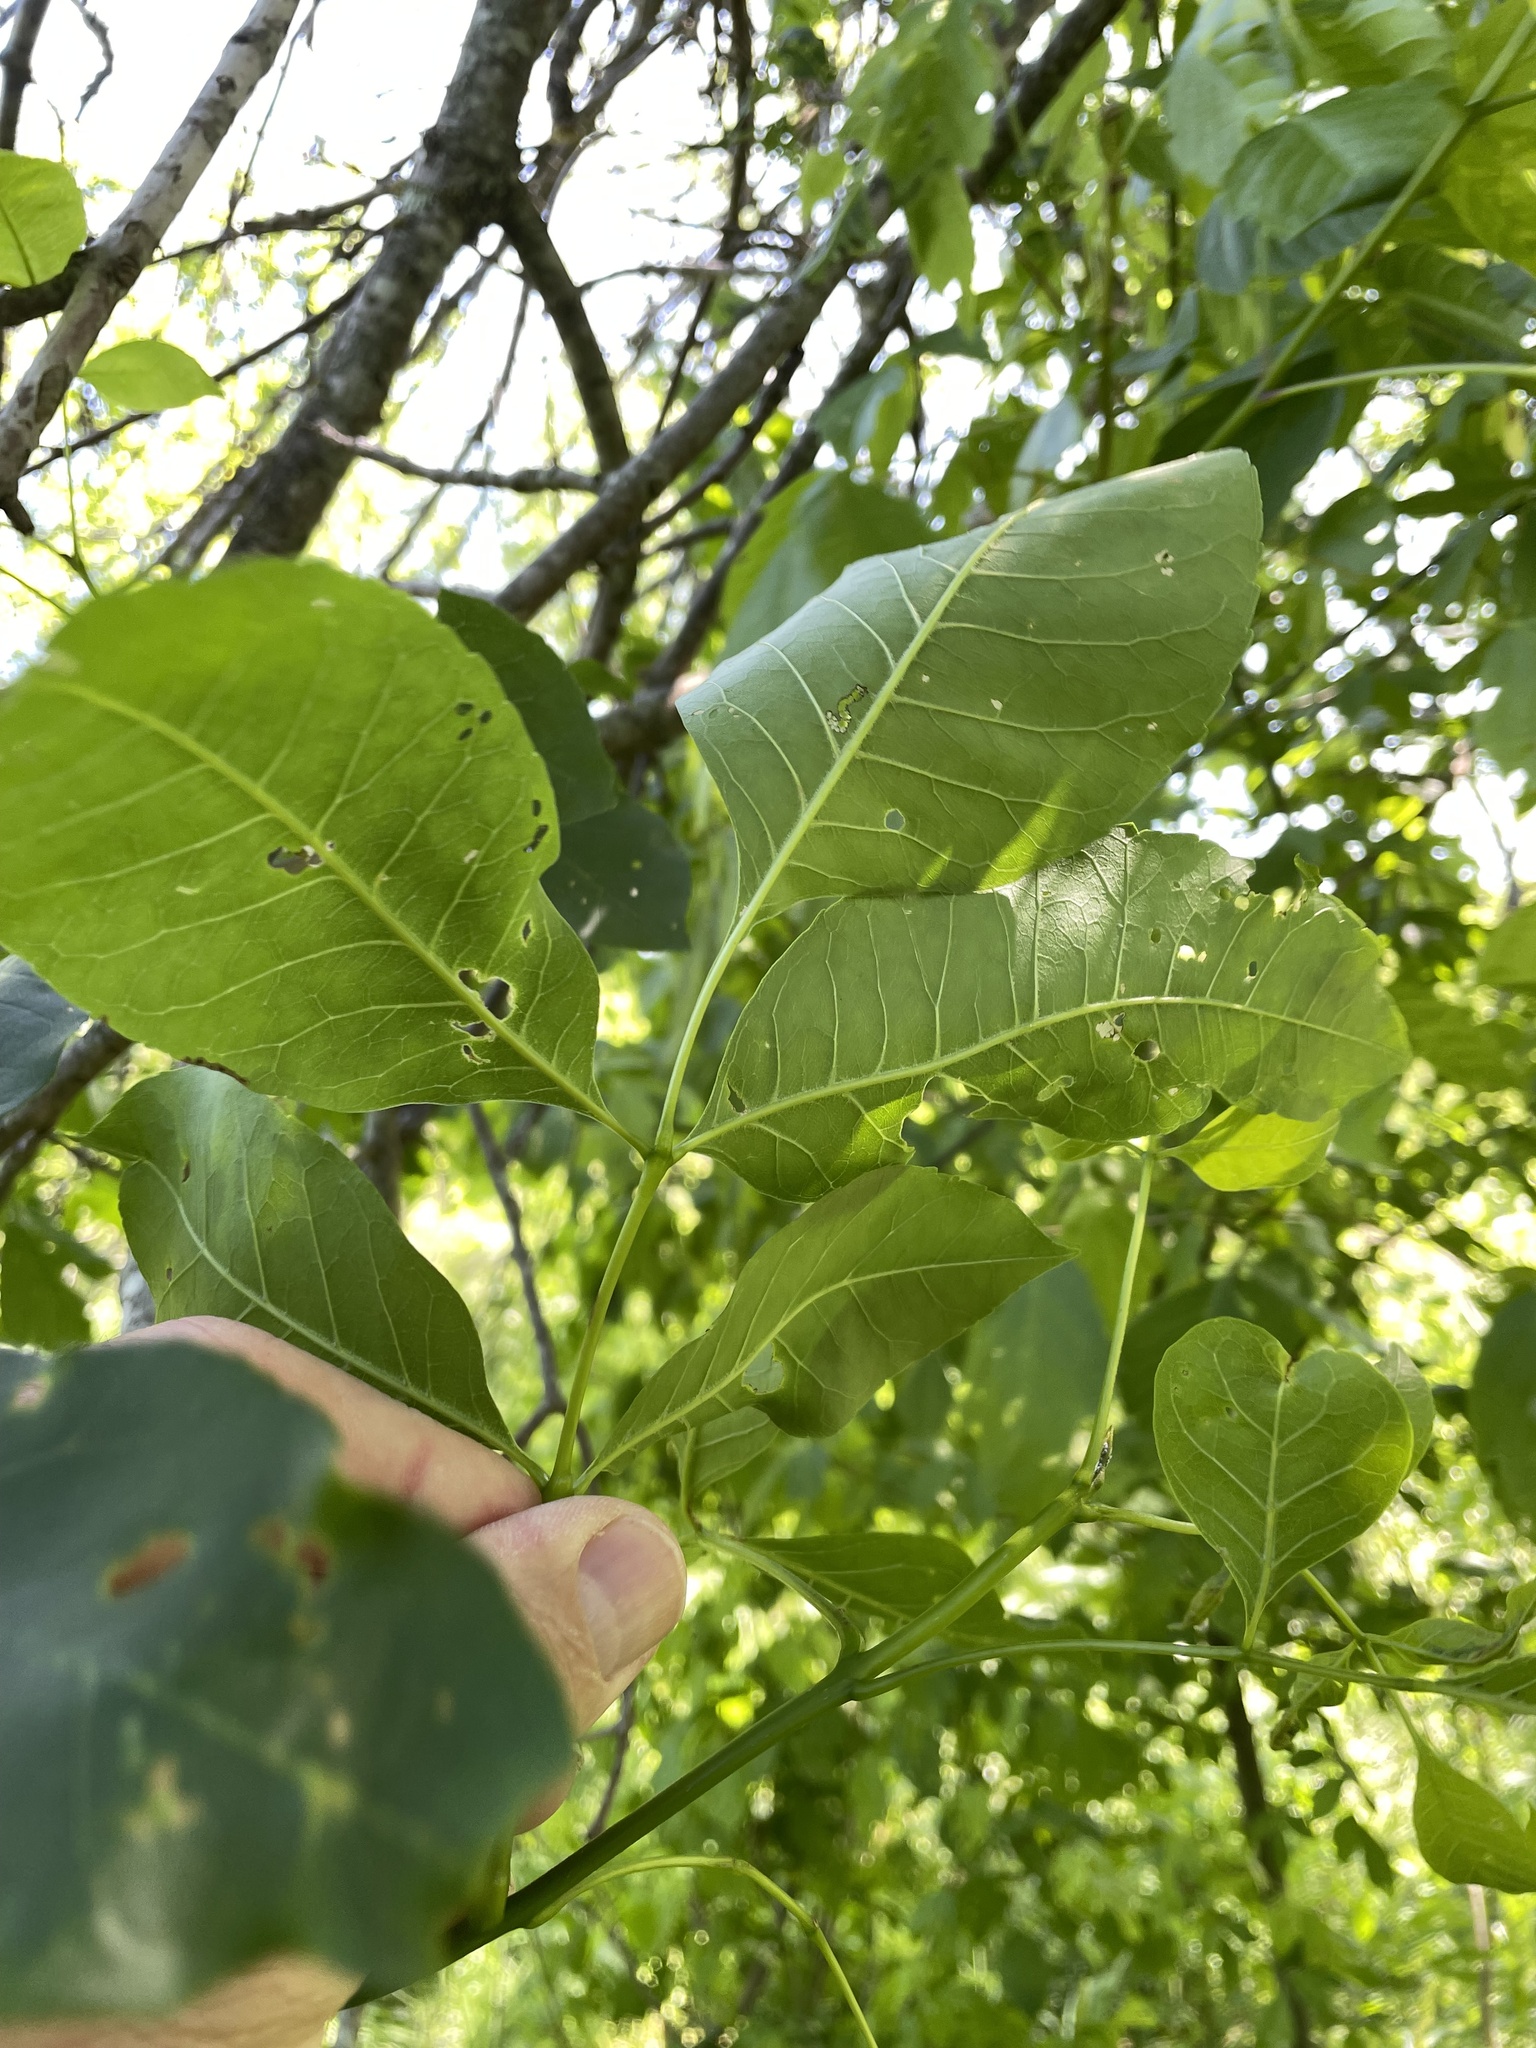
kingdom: Plantae
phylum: Tracheophyta
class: Magnoliopsida
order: Lamiales
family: Oleaceae
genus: Fraxinus
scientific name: Fraxinus pennsylvanica
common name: Green ash
